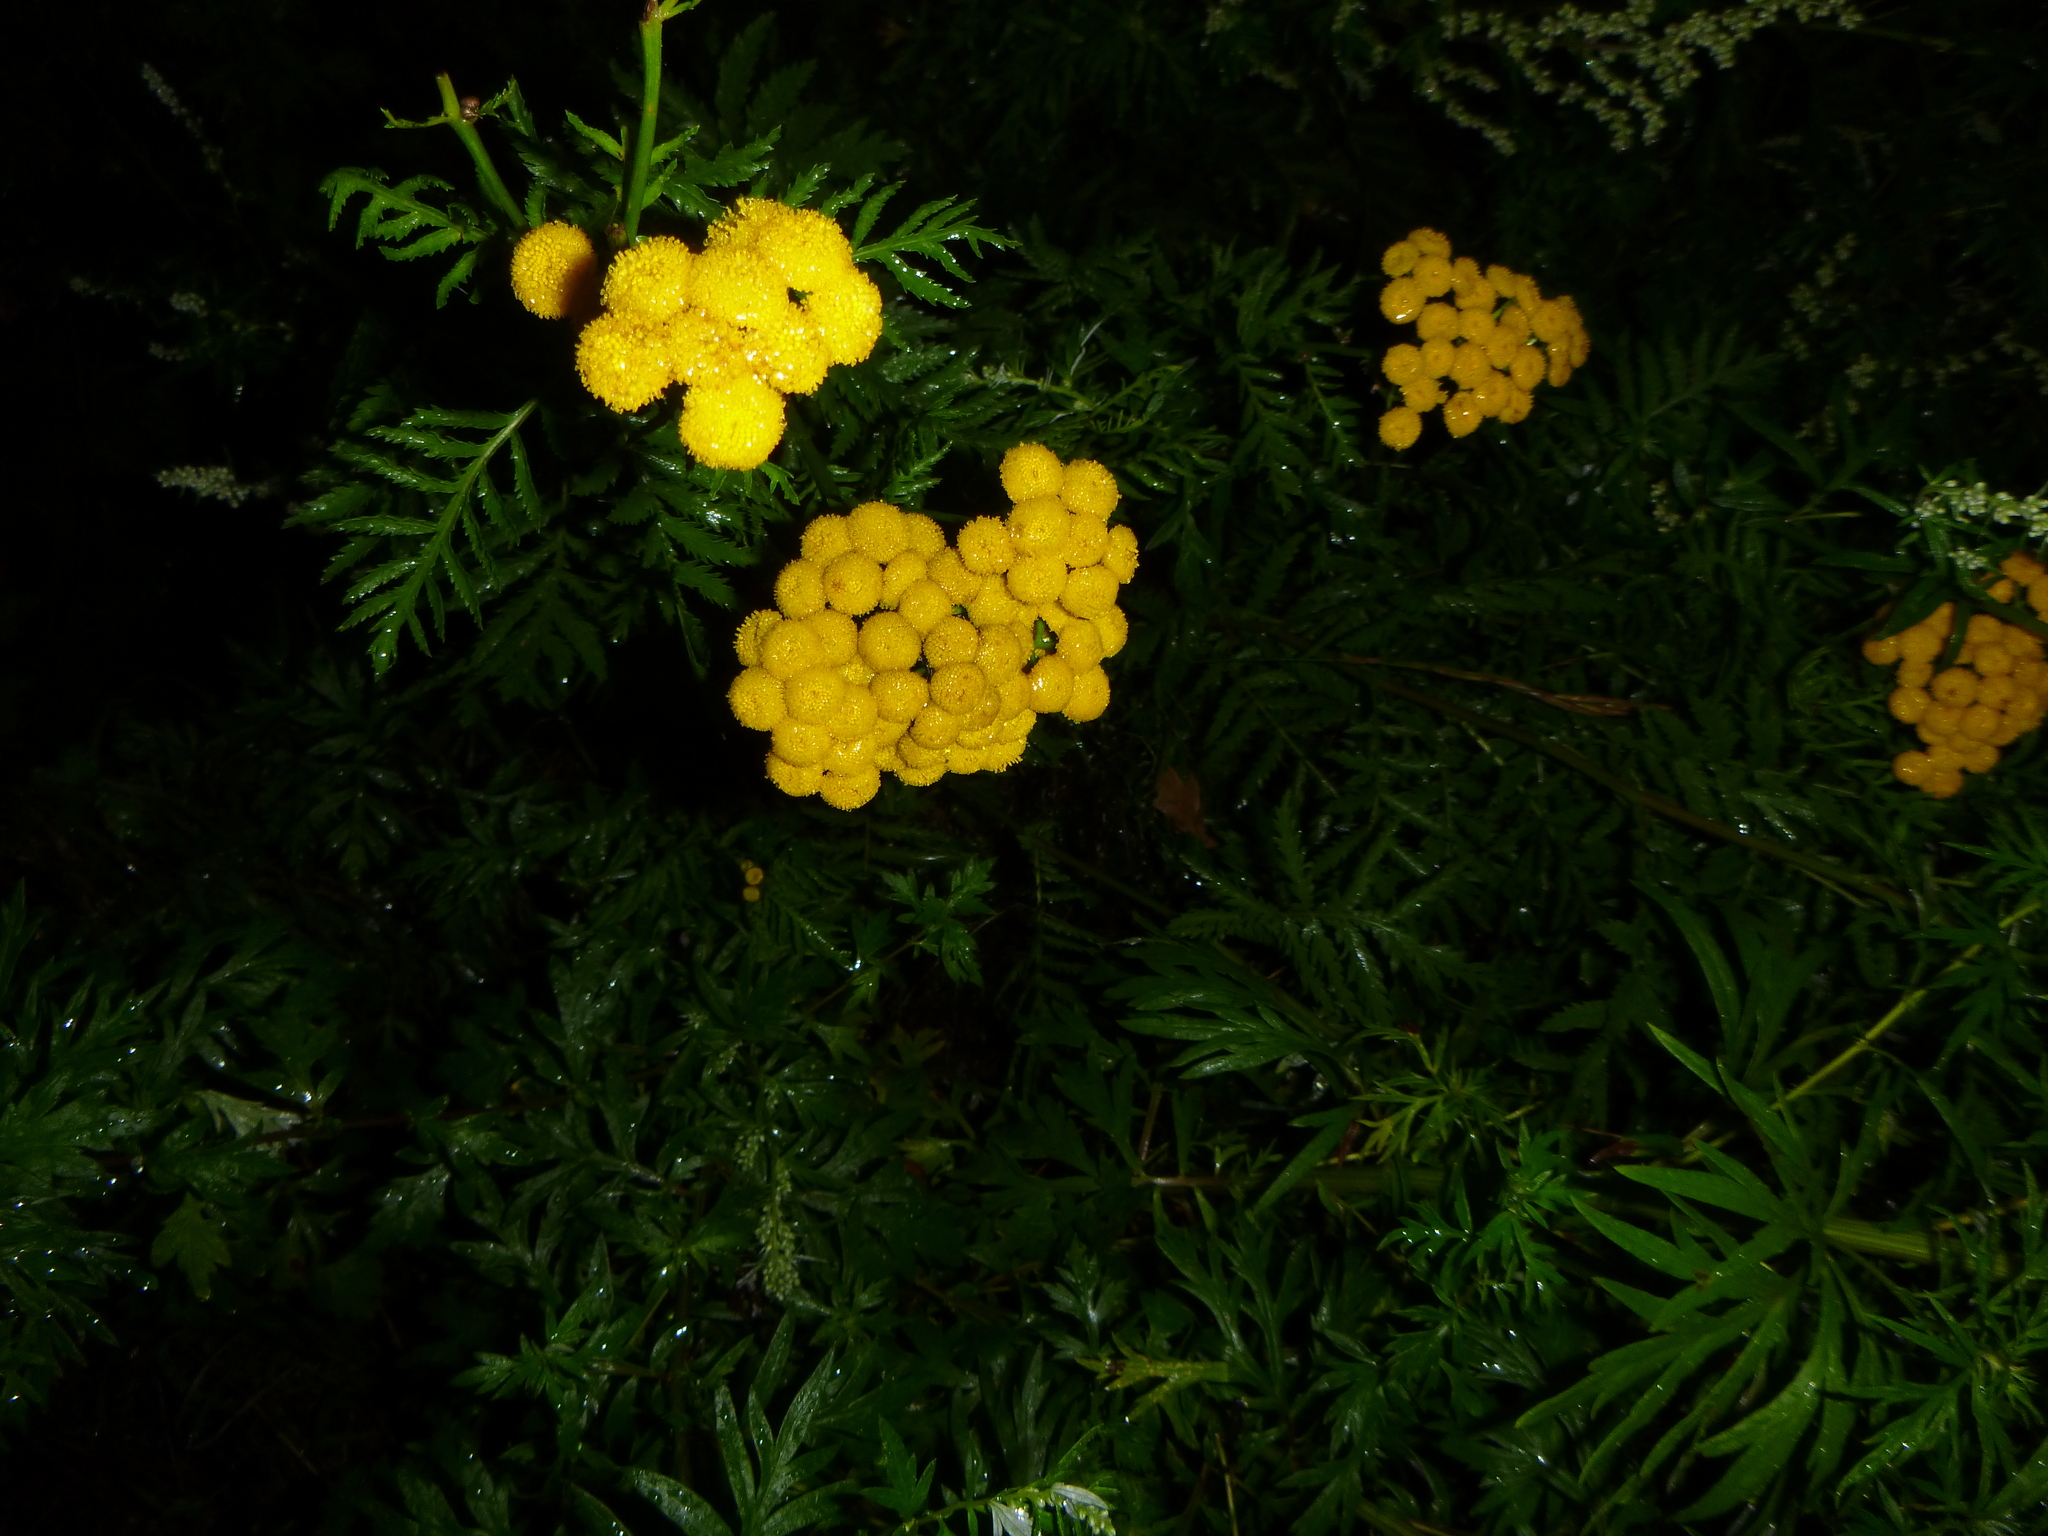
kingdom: Plantae
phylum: Tracheophyta
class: Magnoliopsida
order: Asterales
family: Asteraceae
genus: Tanacetum
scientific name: Tanacetum vulgare
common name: Common tansy
